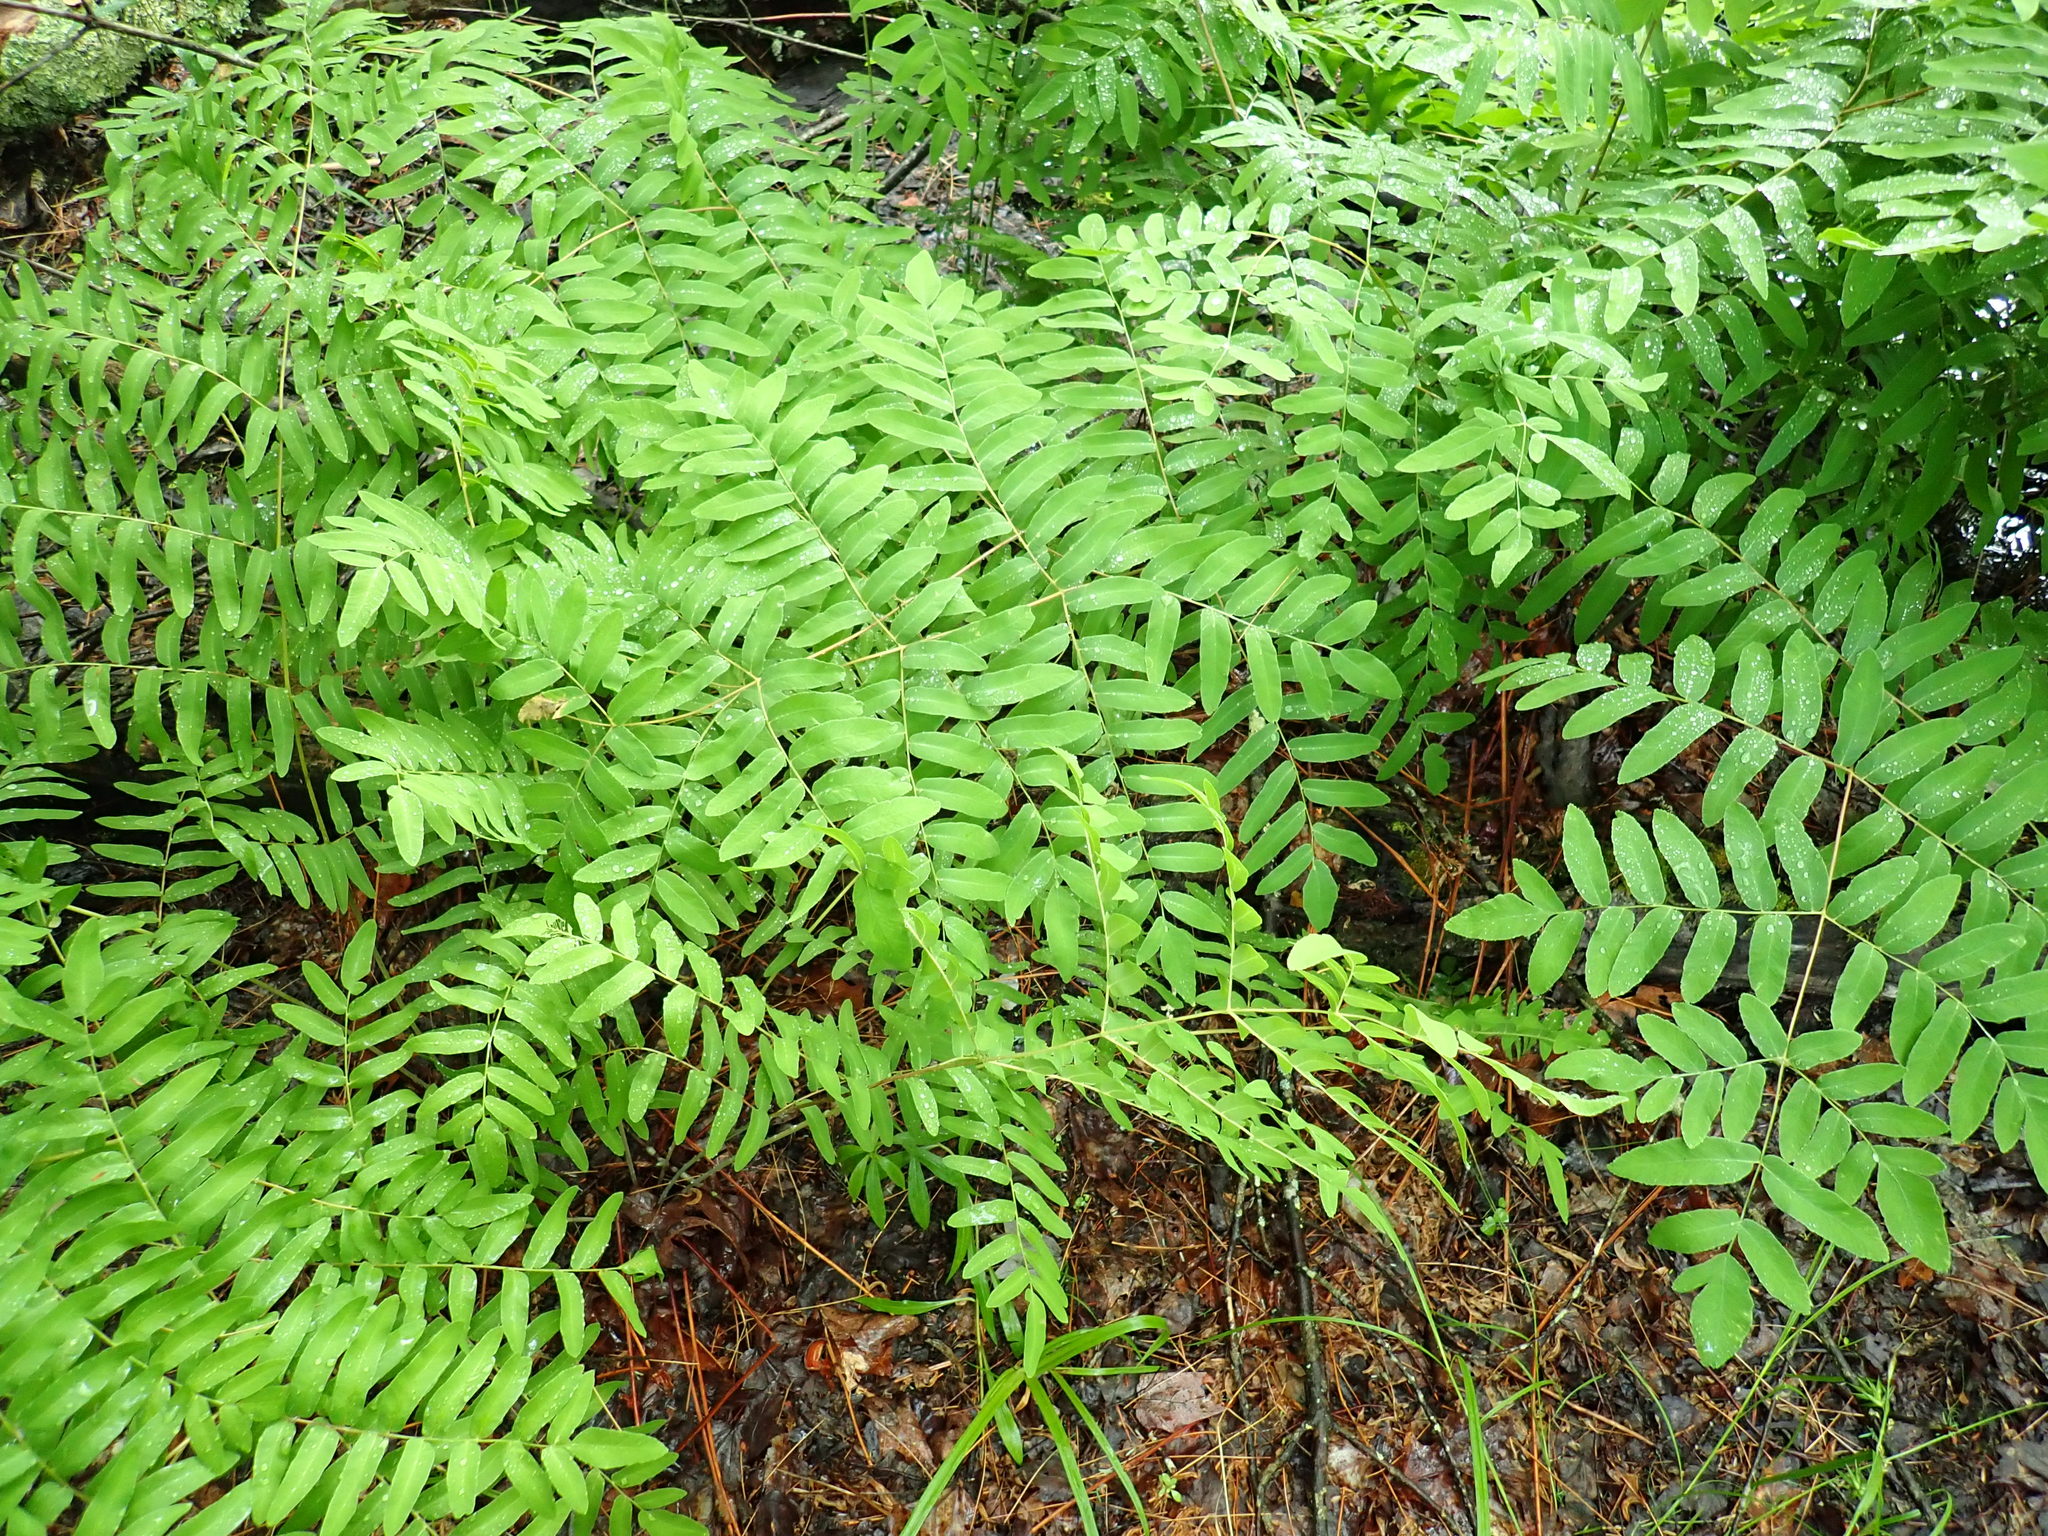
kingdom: Plantae
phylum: Tracheophyta
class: Polypodiopsida
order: Osmundales
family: Osmundaceae
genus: Osmunda
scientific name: Osmunda spectabilis
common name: American royal fern
